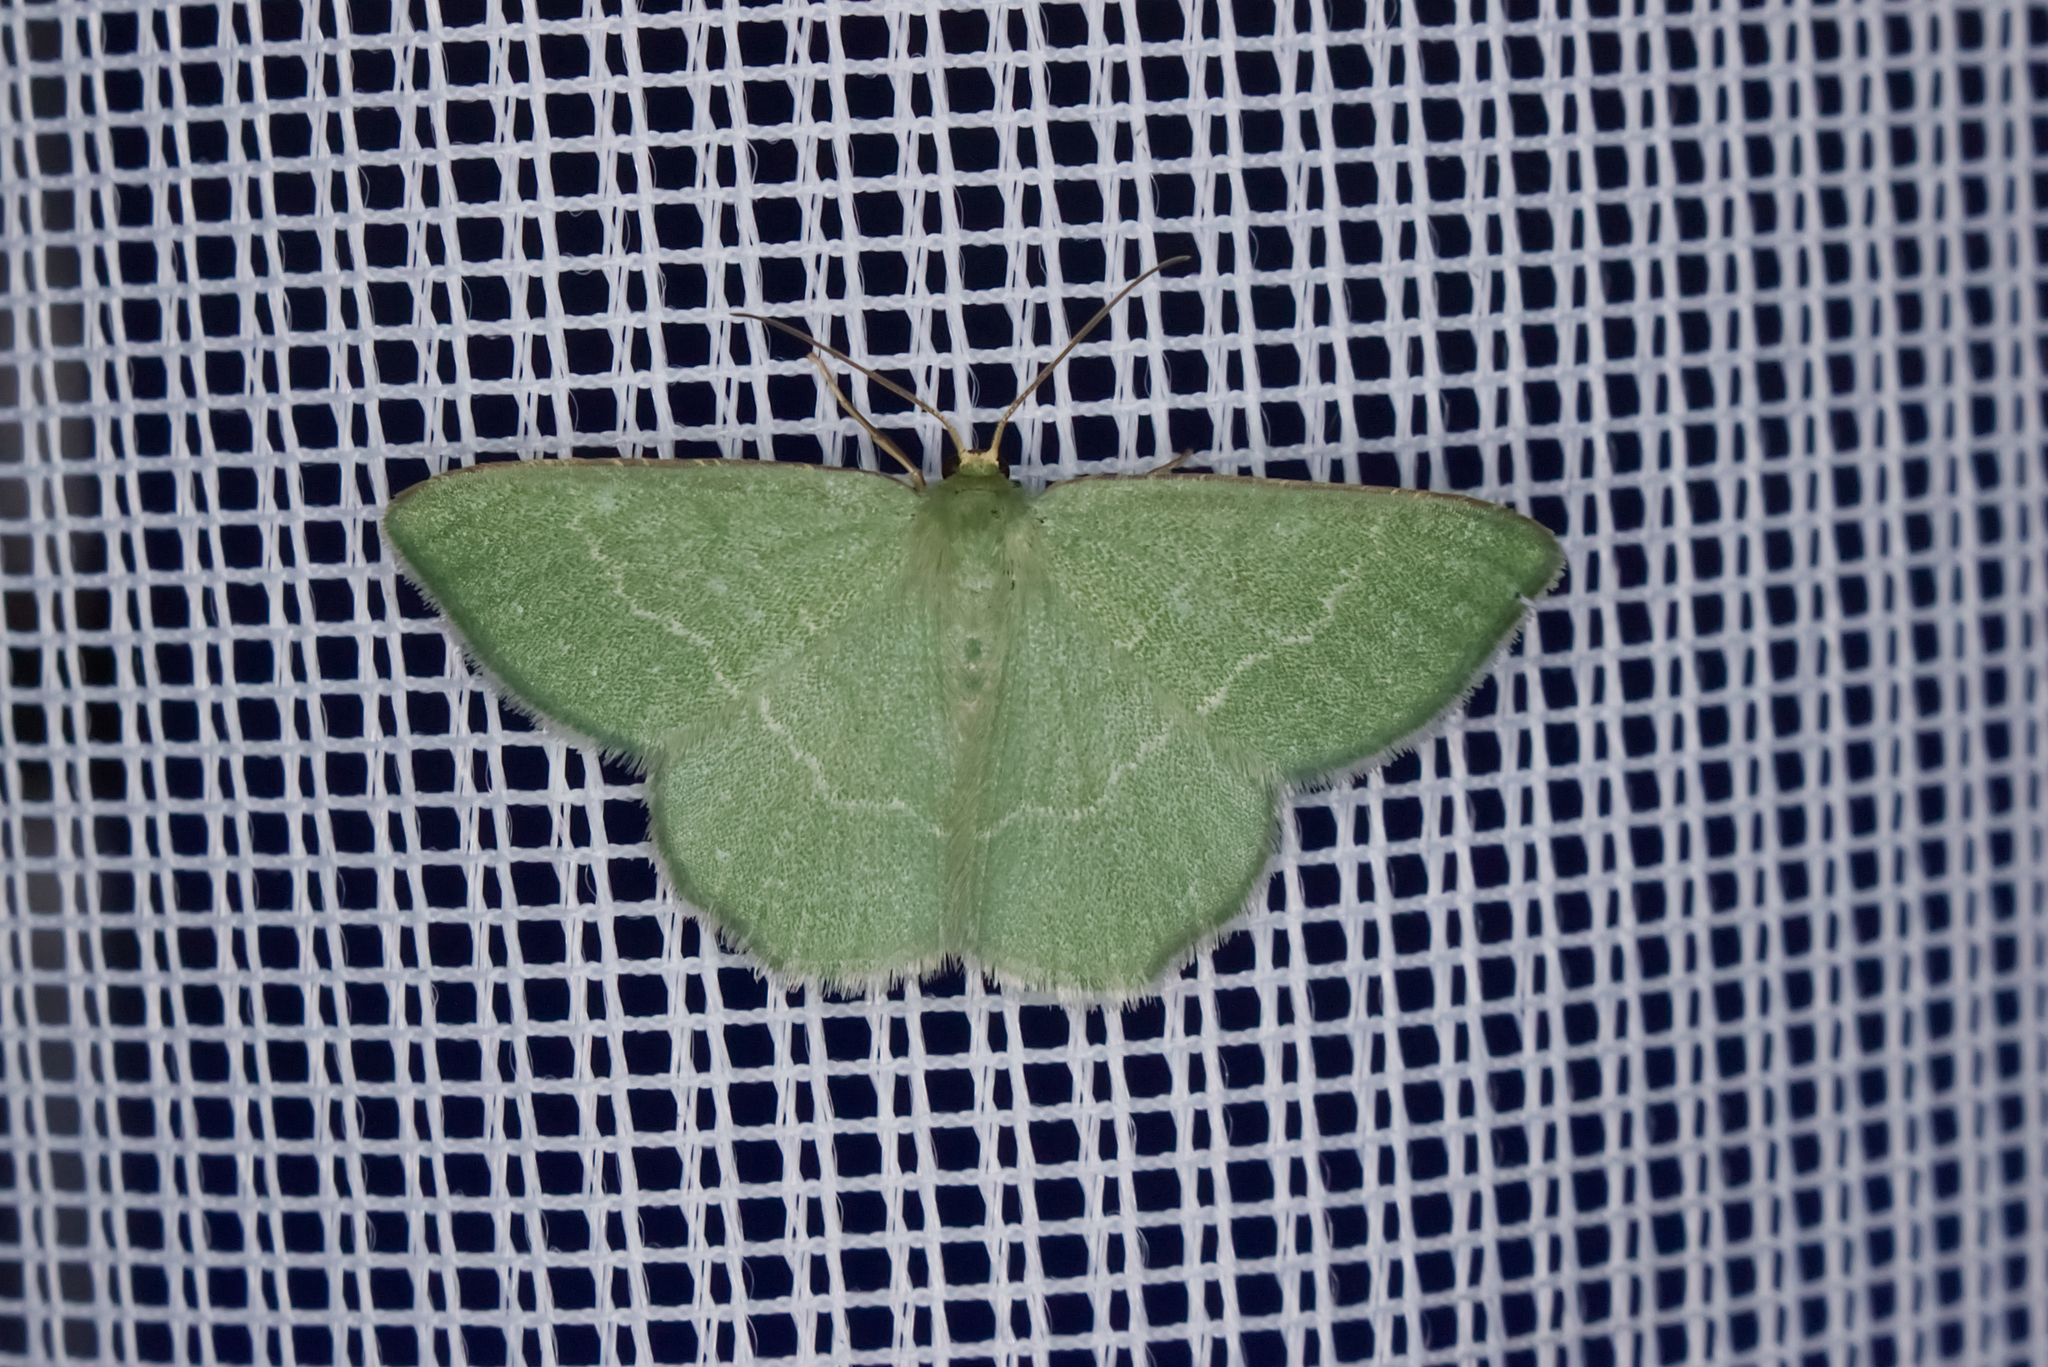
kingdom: Animalia
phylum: Arthropoda
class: Insecta
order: Lepidoptera
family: Geometridae
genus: Chlorissa
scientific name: Chlorissa cloraria
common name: Southern grass emerald
